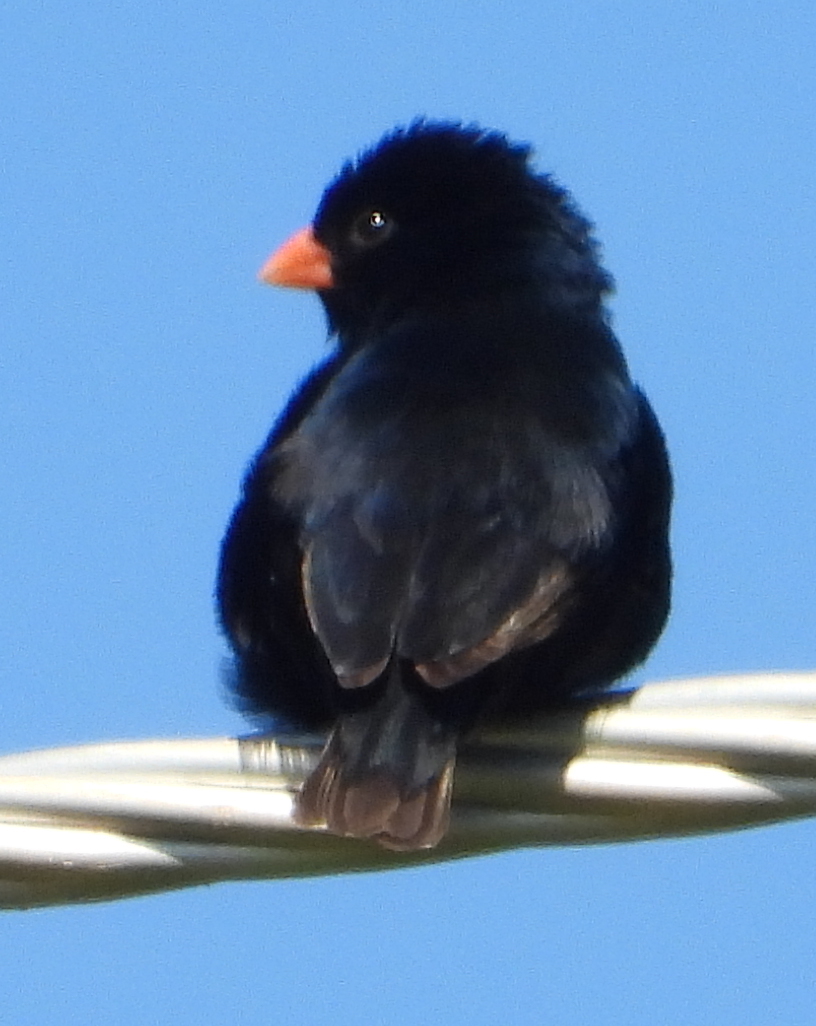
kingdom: Animalia
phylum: Chordata
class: Aves
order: Passeriformes
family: Viduidae
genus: Vidua
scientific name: Vidua chalybeata
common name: Village indigobird
